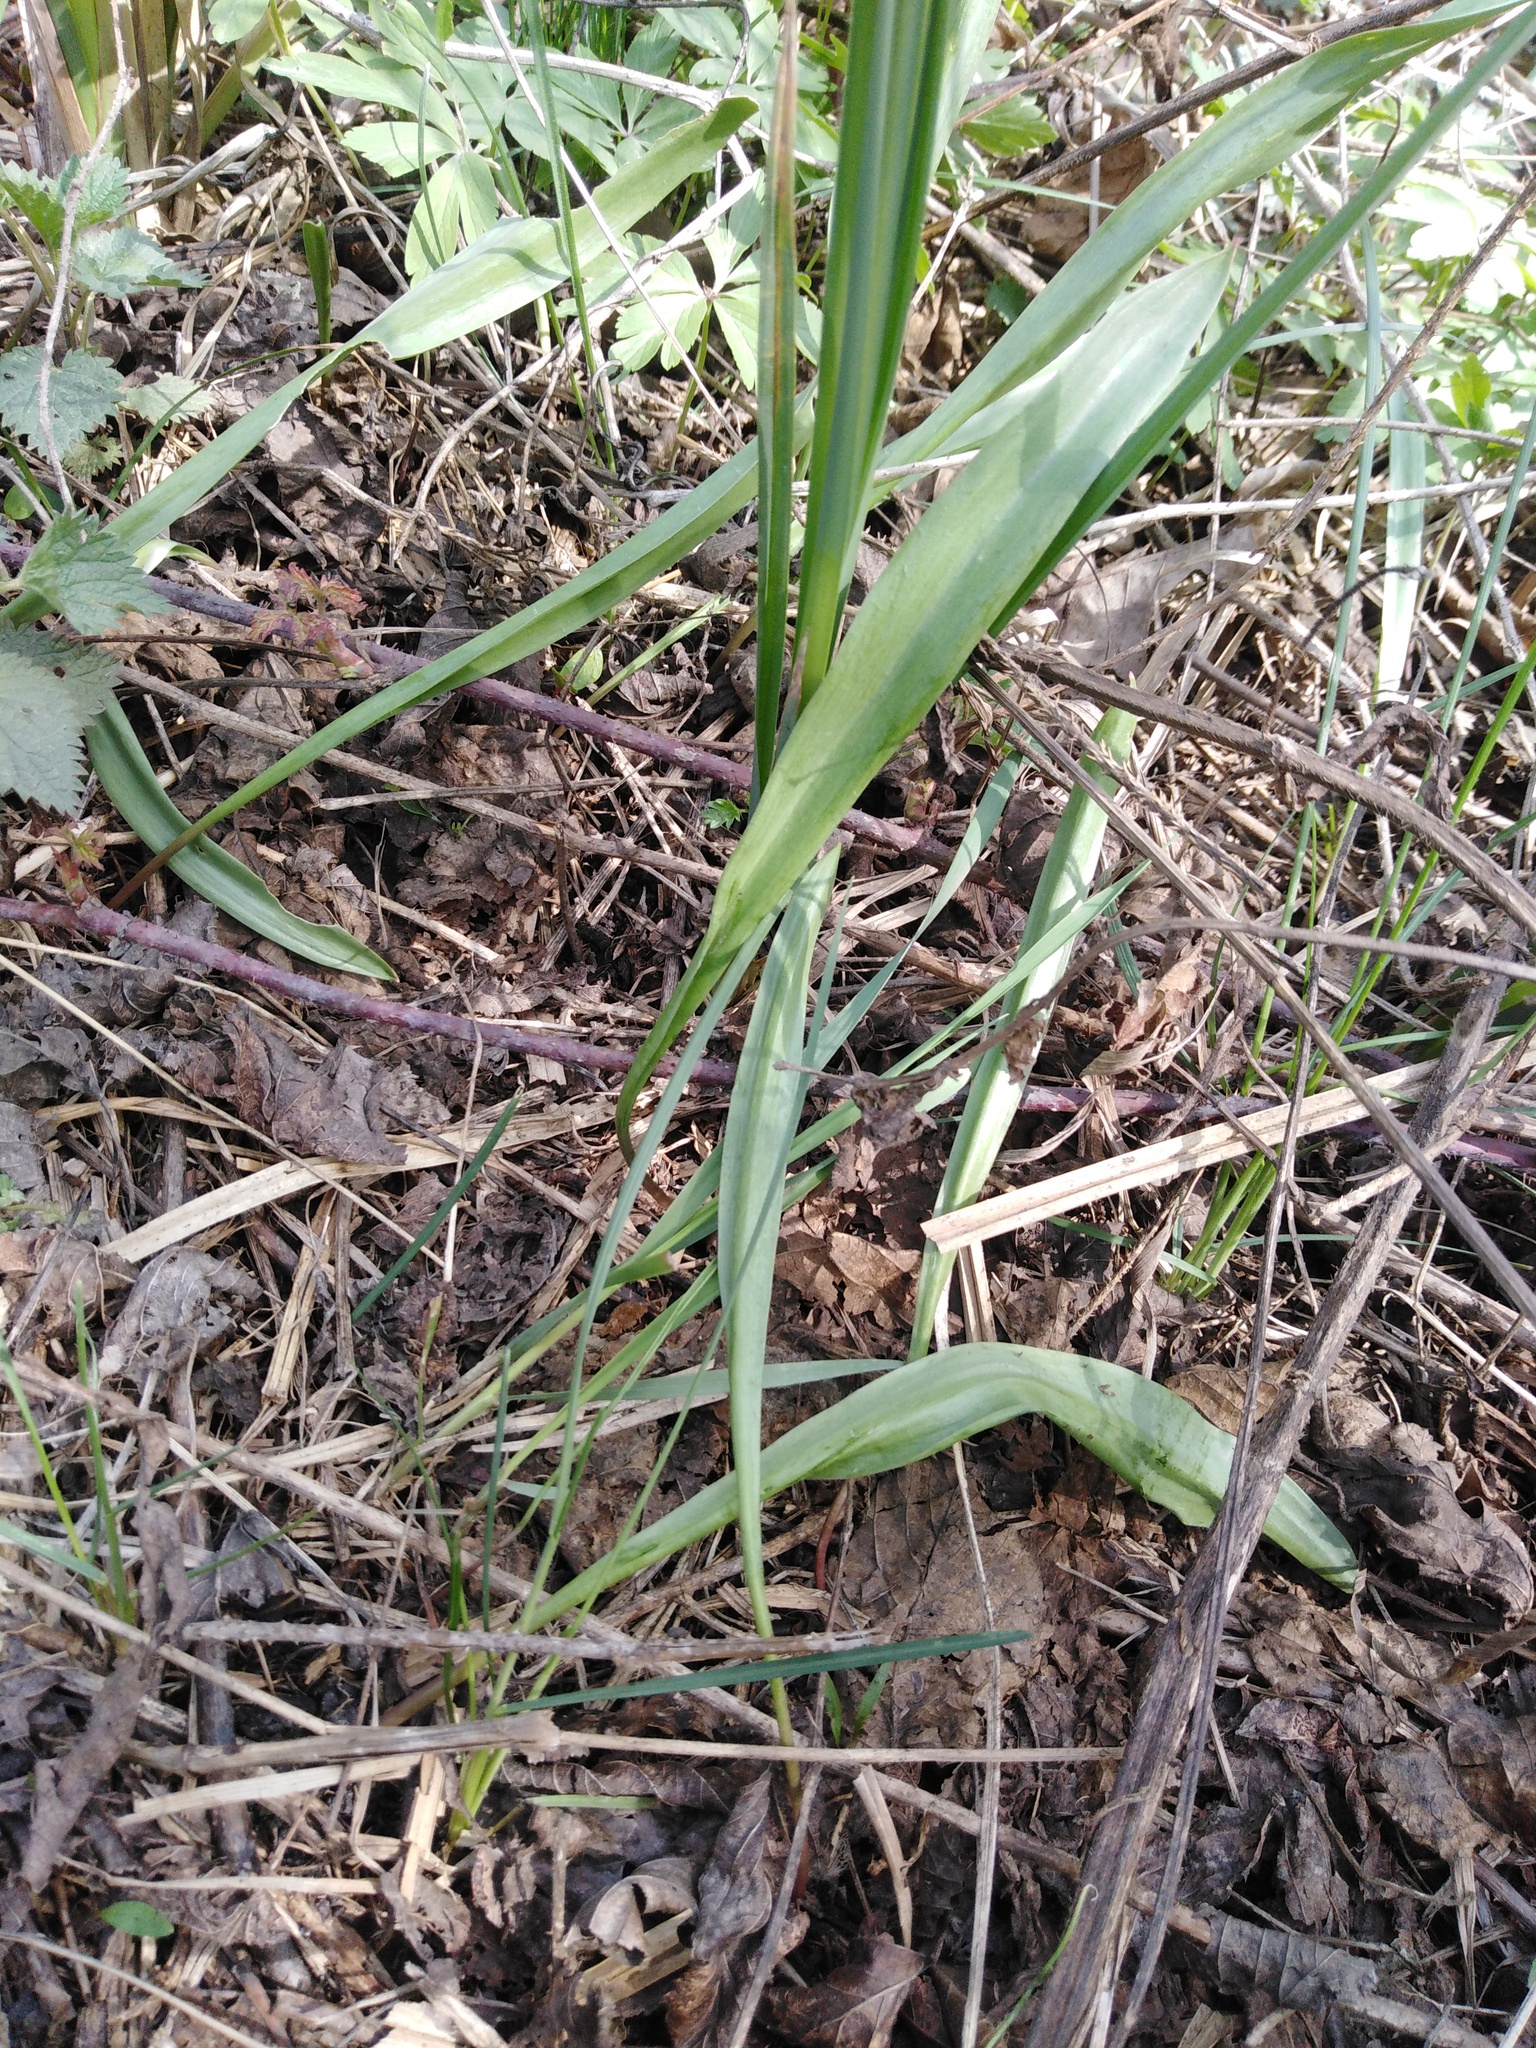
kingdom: Plantae
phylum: Tracheophyta
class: Liliopsida
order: Liliales
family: Liliaceae
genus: Tulipa
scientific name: Tulipa sylvestris
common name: Wild tulip
